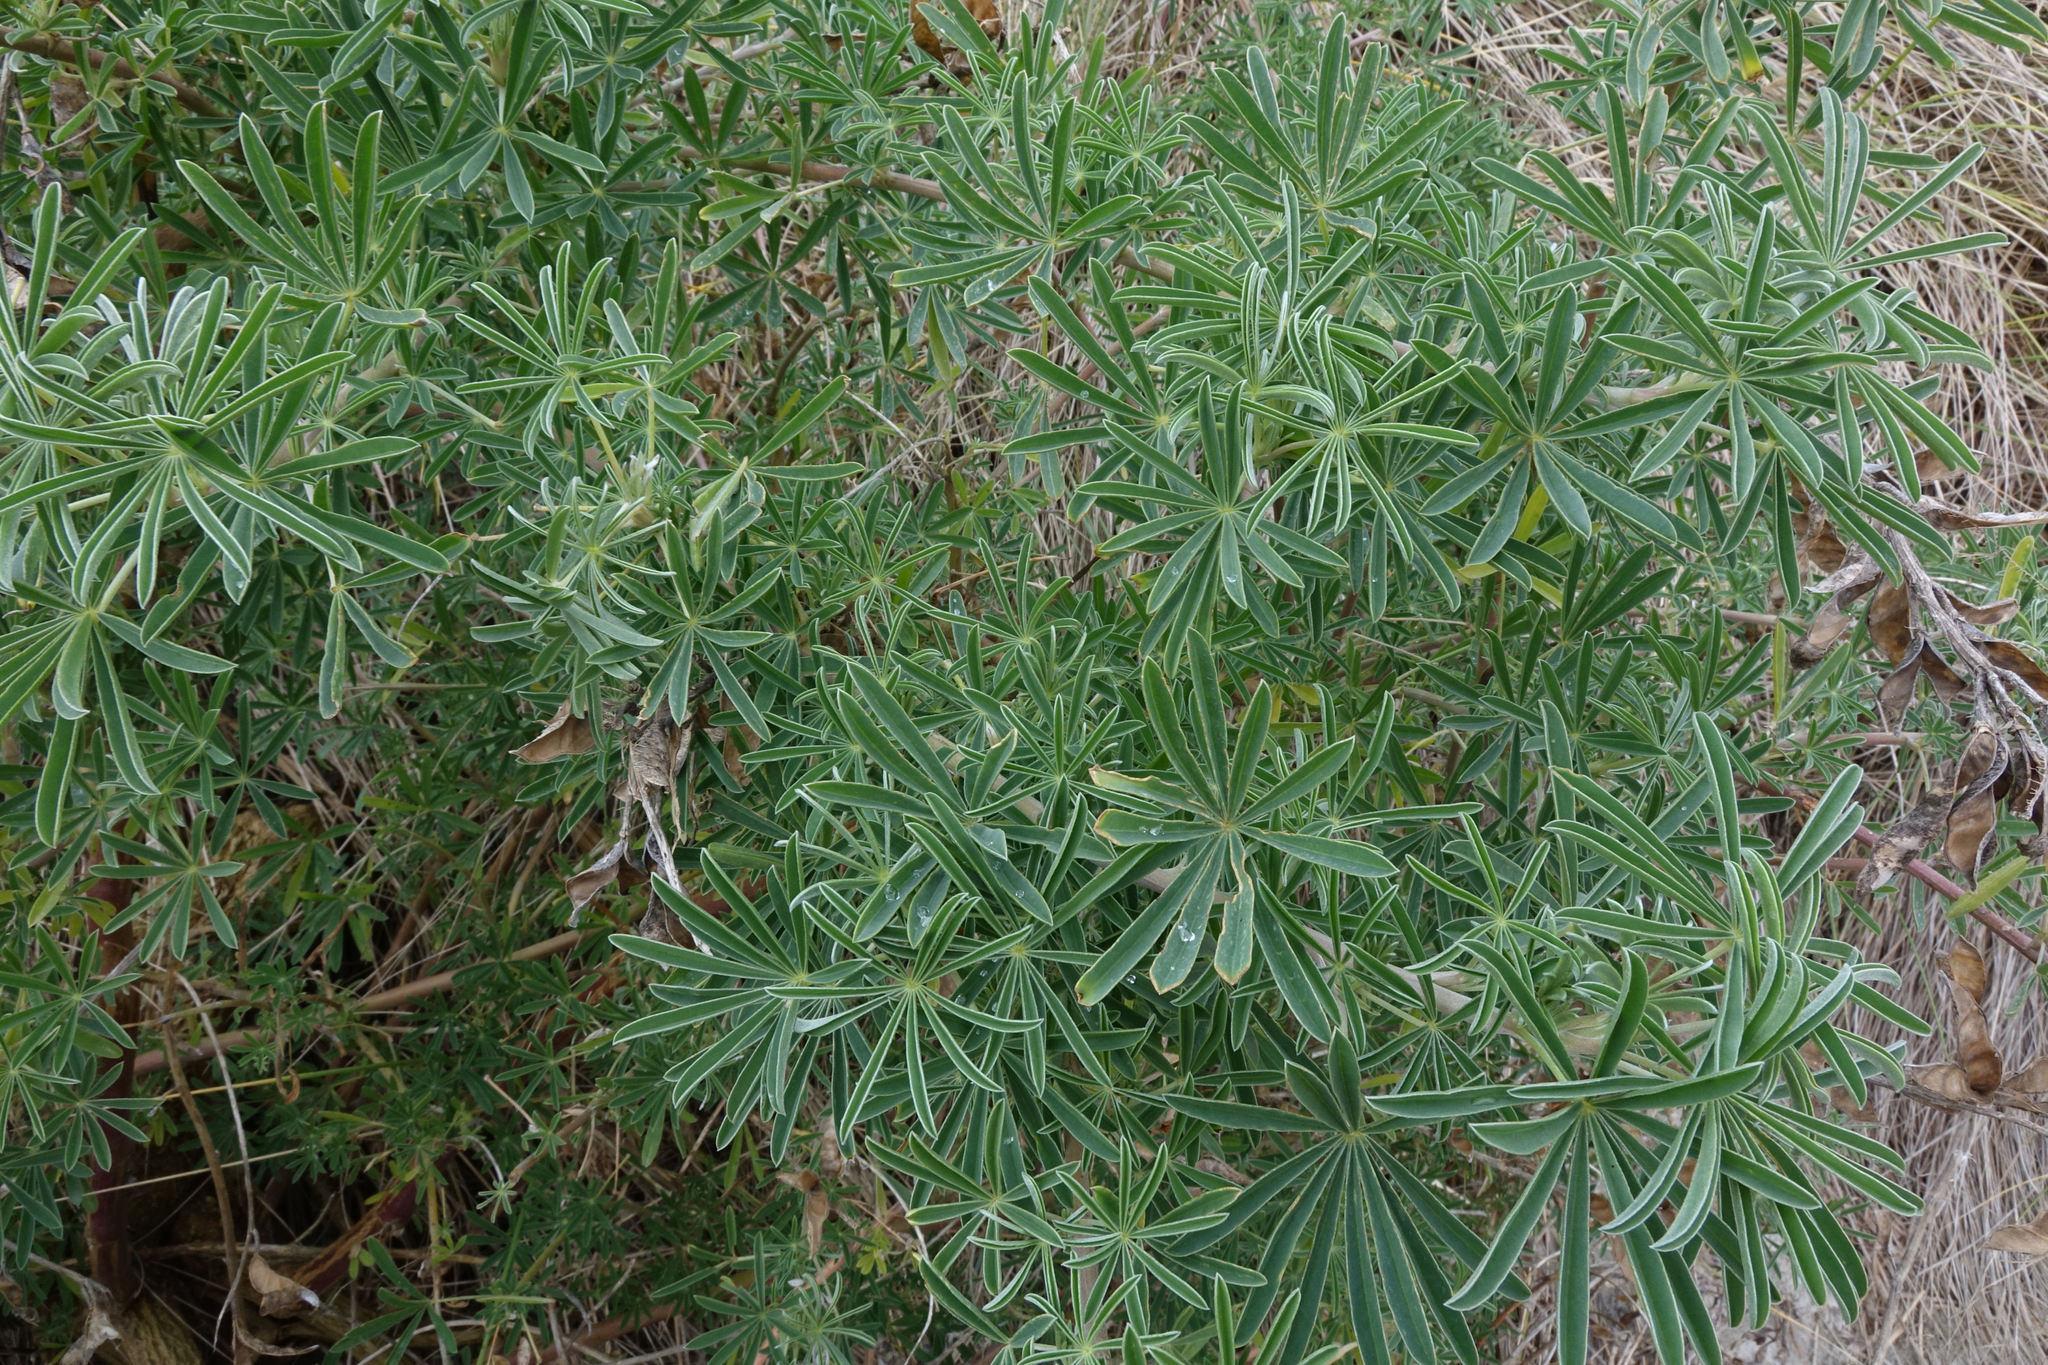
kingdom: Plantae
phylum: Tracheophyta
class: Magnoliopsida
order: Fabales
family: Fabaceae
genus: Lupinus
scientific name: Lupinus arboreus
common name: Yellow bush lupine
